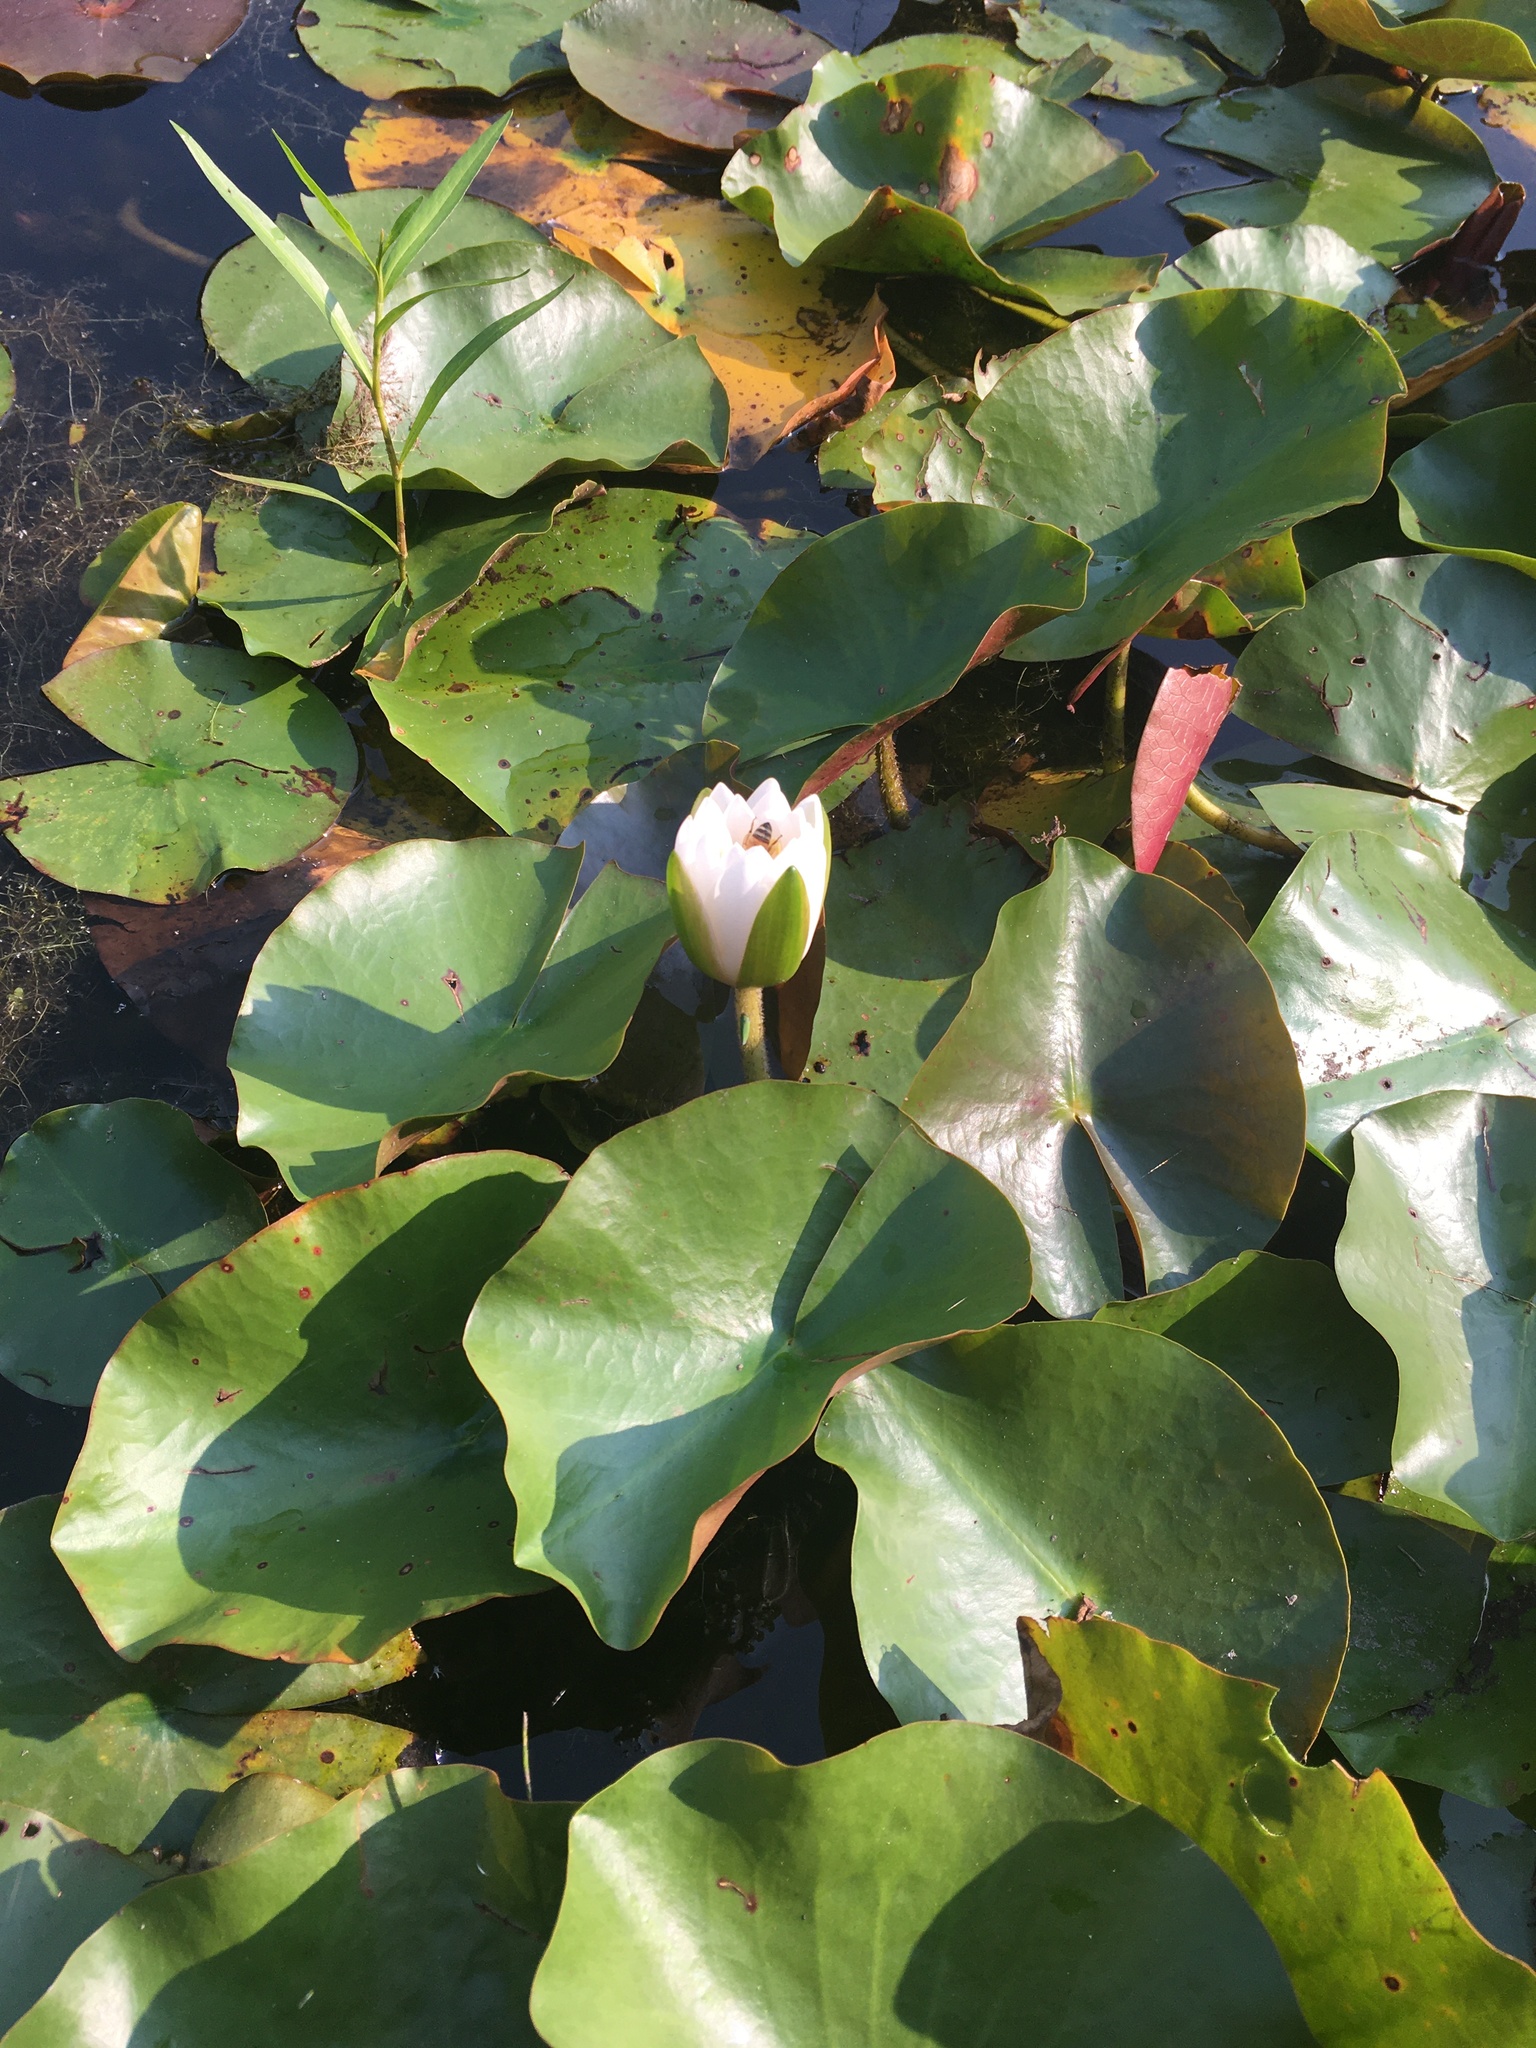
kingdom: Plantae
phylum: Tracheophyta
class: Magnoliopsida
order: Nymphaeales
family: Nymphaeaceae
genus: Nymphaea
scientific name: Nymphaea odorata
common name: Fragrant water-lily
